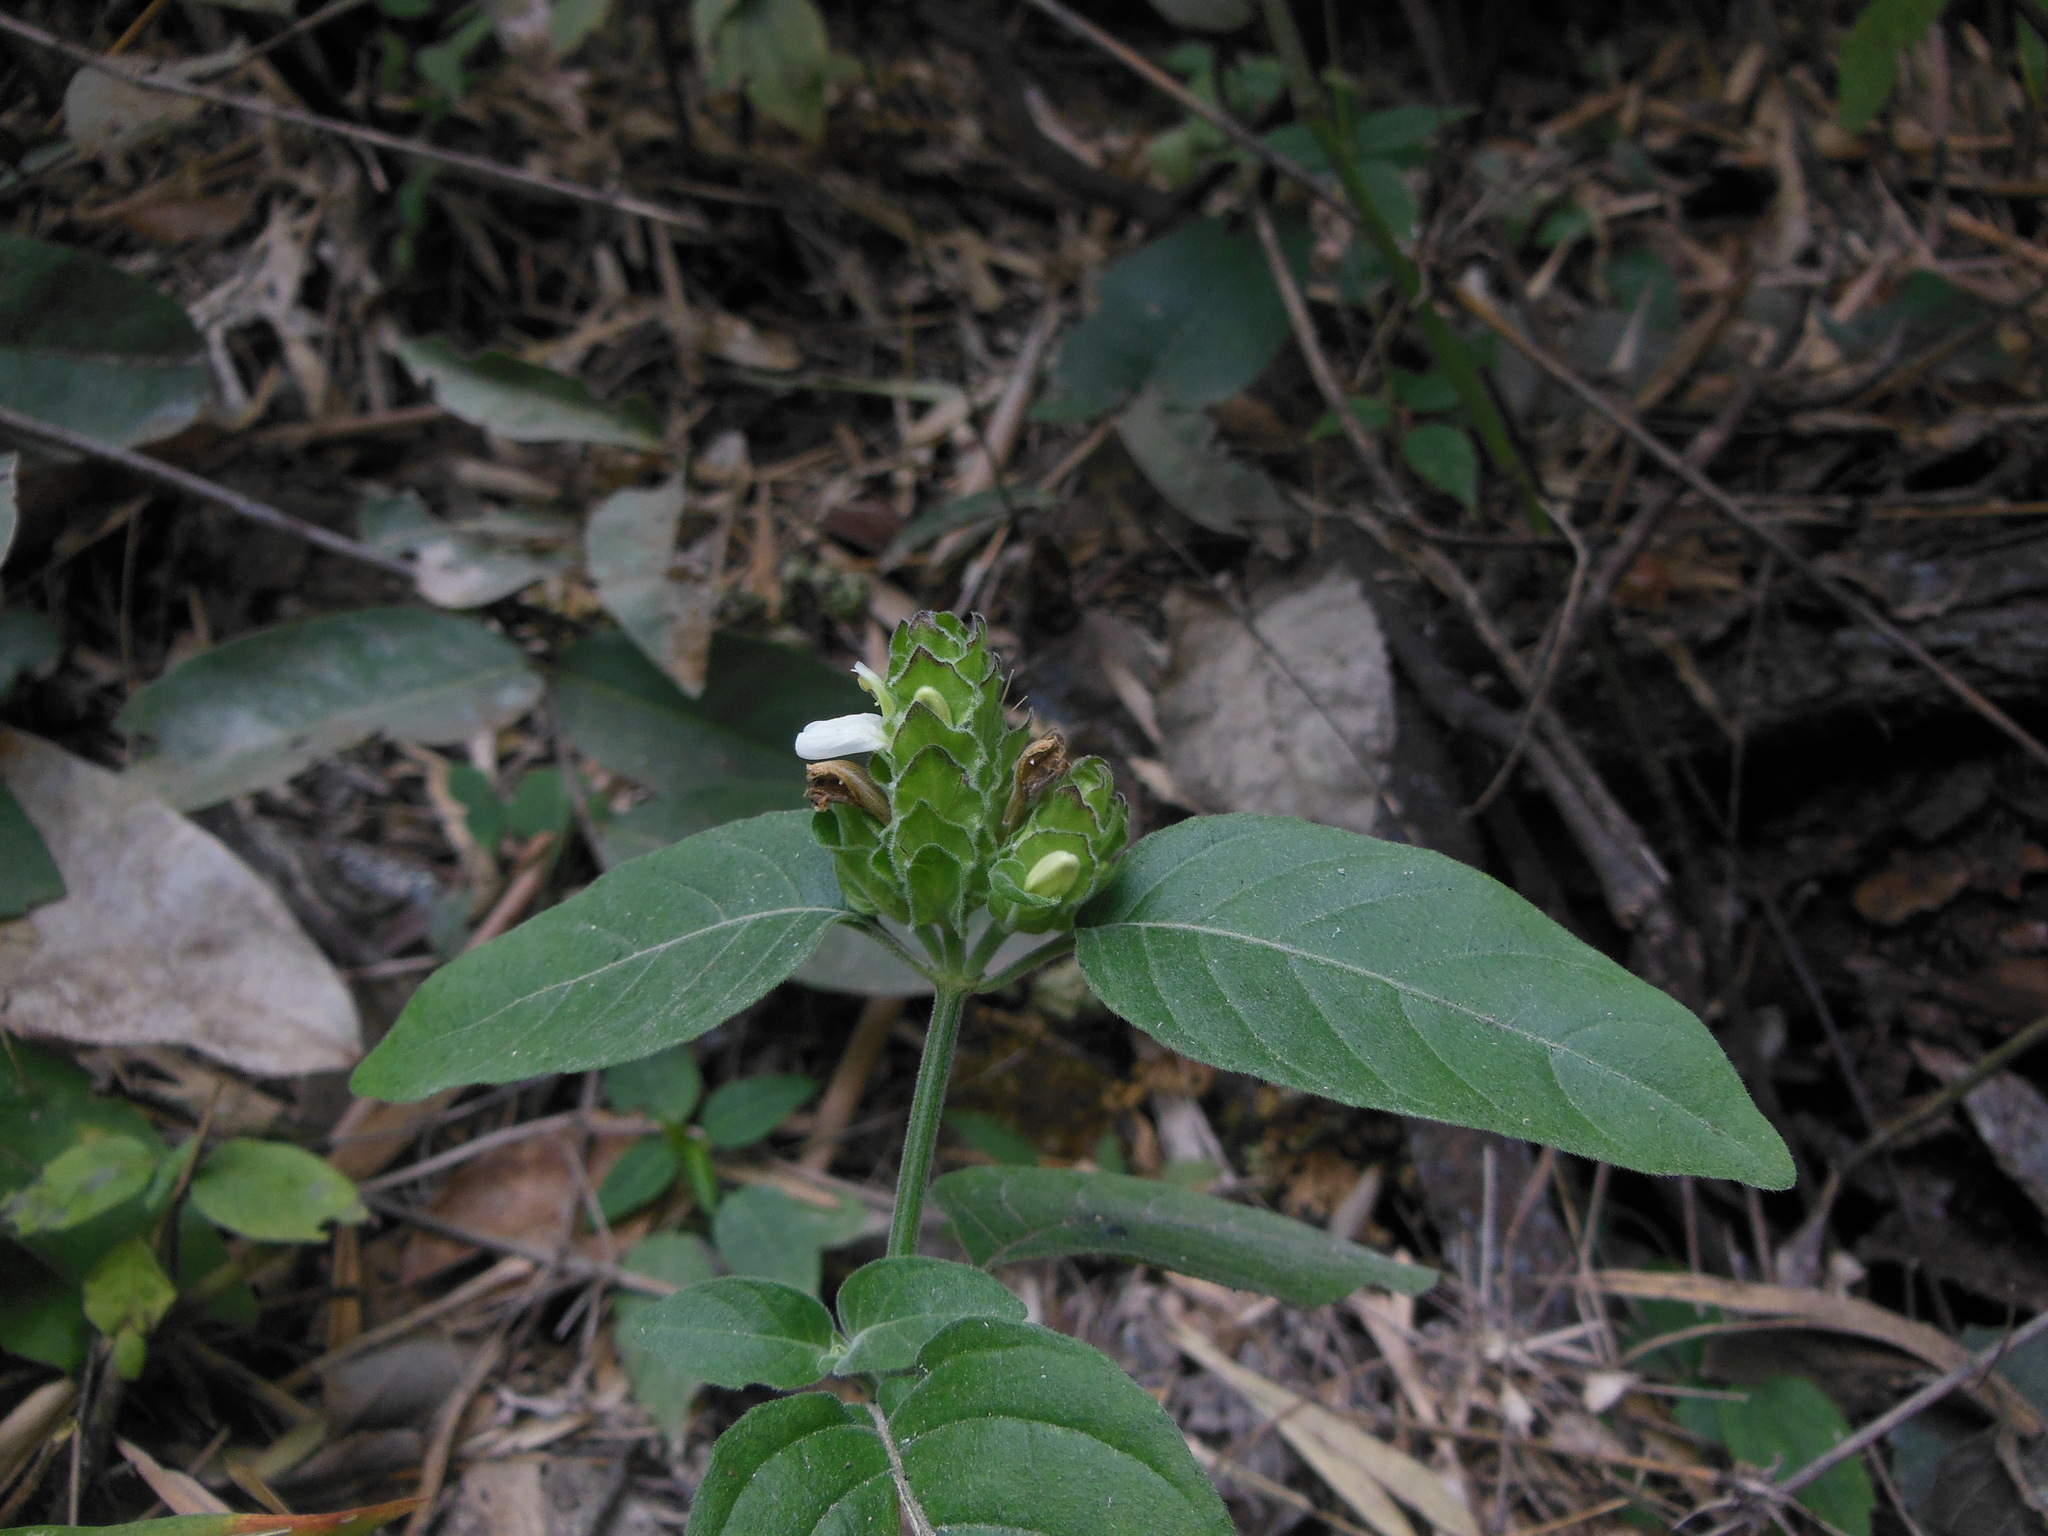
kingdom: Plantae
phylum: Tracheophyta
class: Magnoliopsida
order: Lamiales
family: Acanthaceae
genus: Ruellia
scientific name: Ruellia blechum
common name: Browne's blechum
